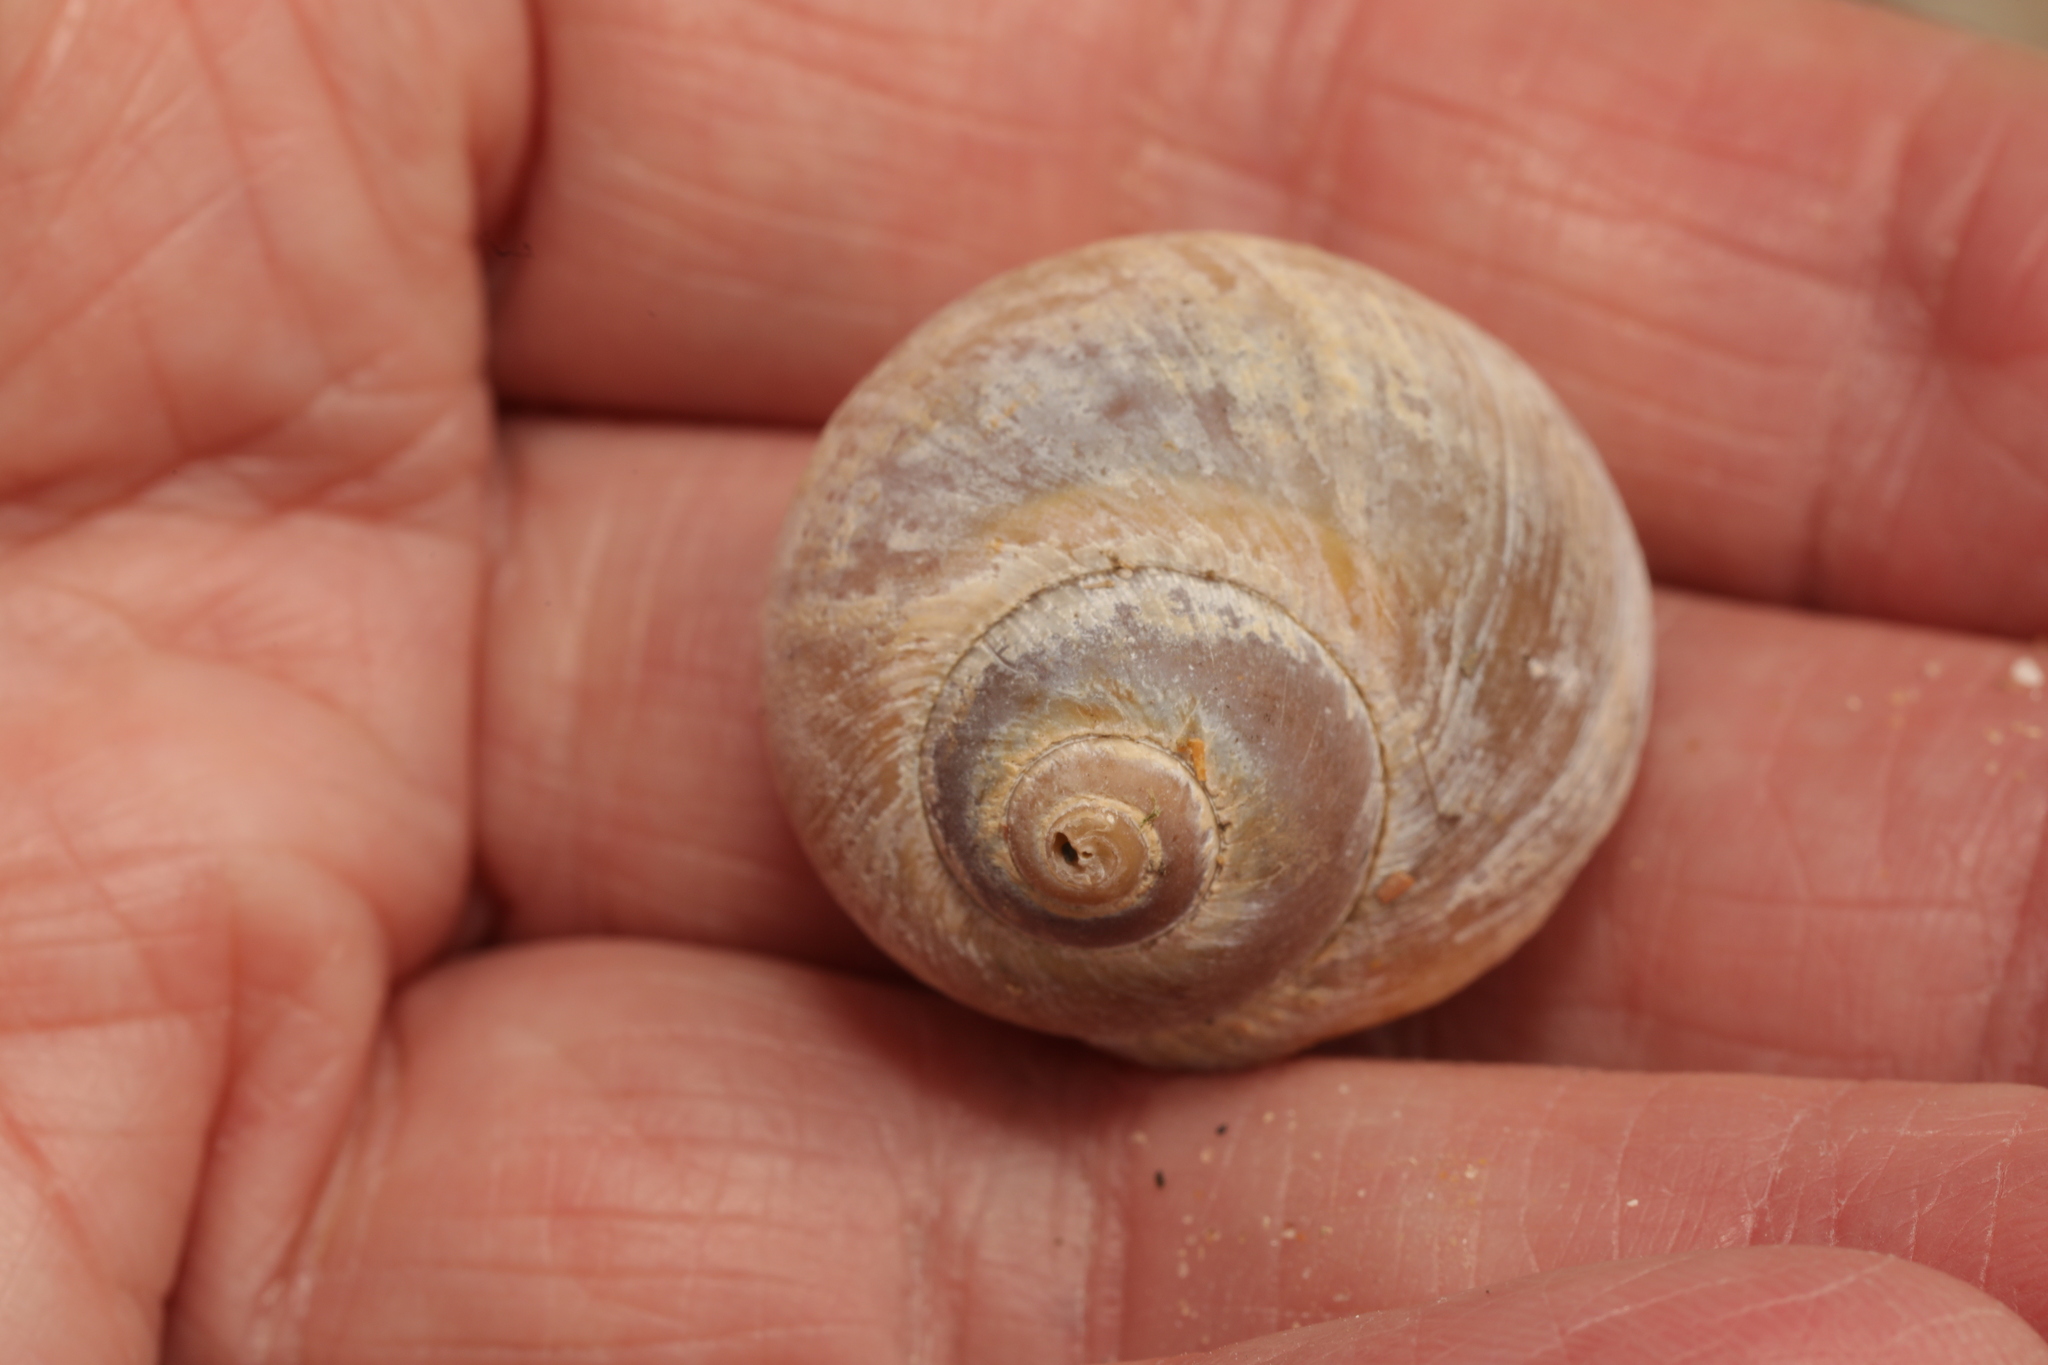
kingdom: Animalia
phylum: Mollusca
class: Gastropoda
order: Littorinimorpha
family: Naticidae
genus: Euspira
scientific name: Euspira catena
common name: Necklace shell
